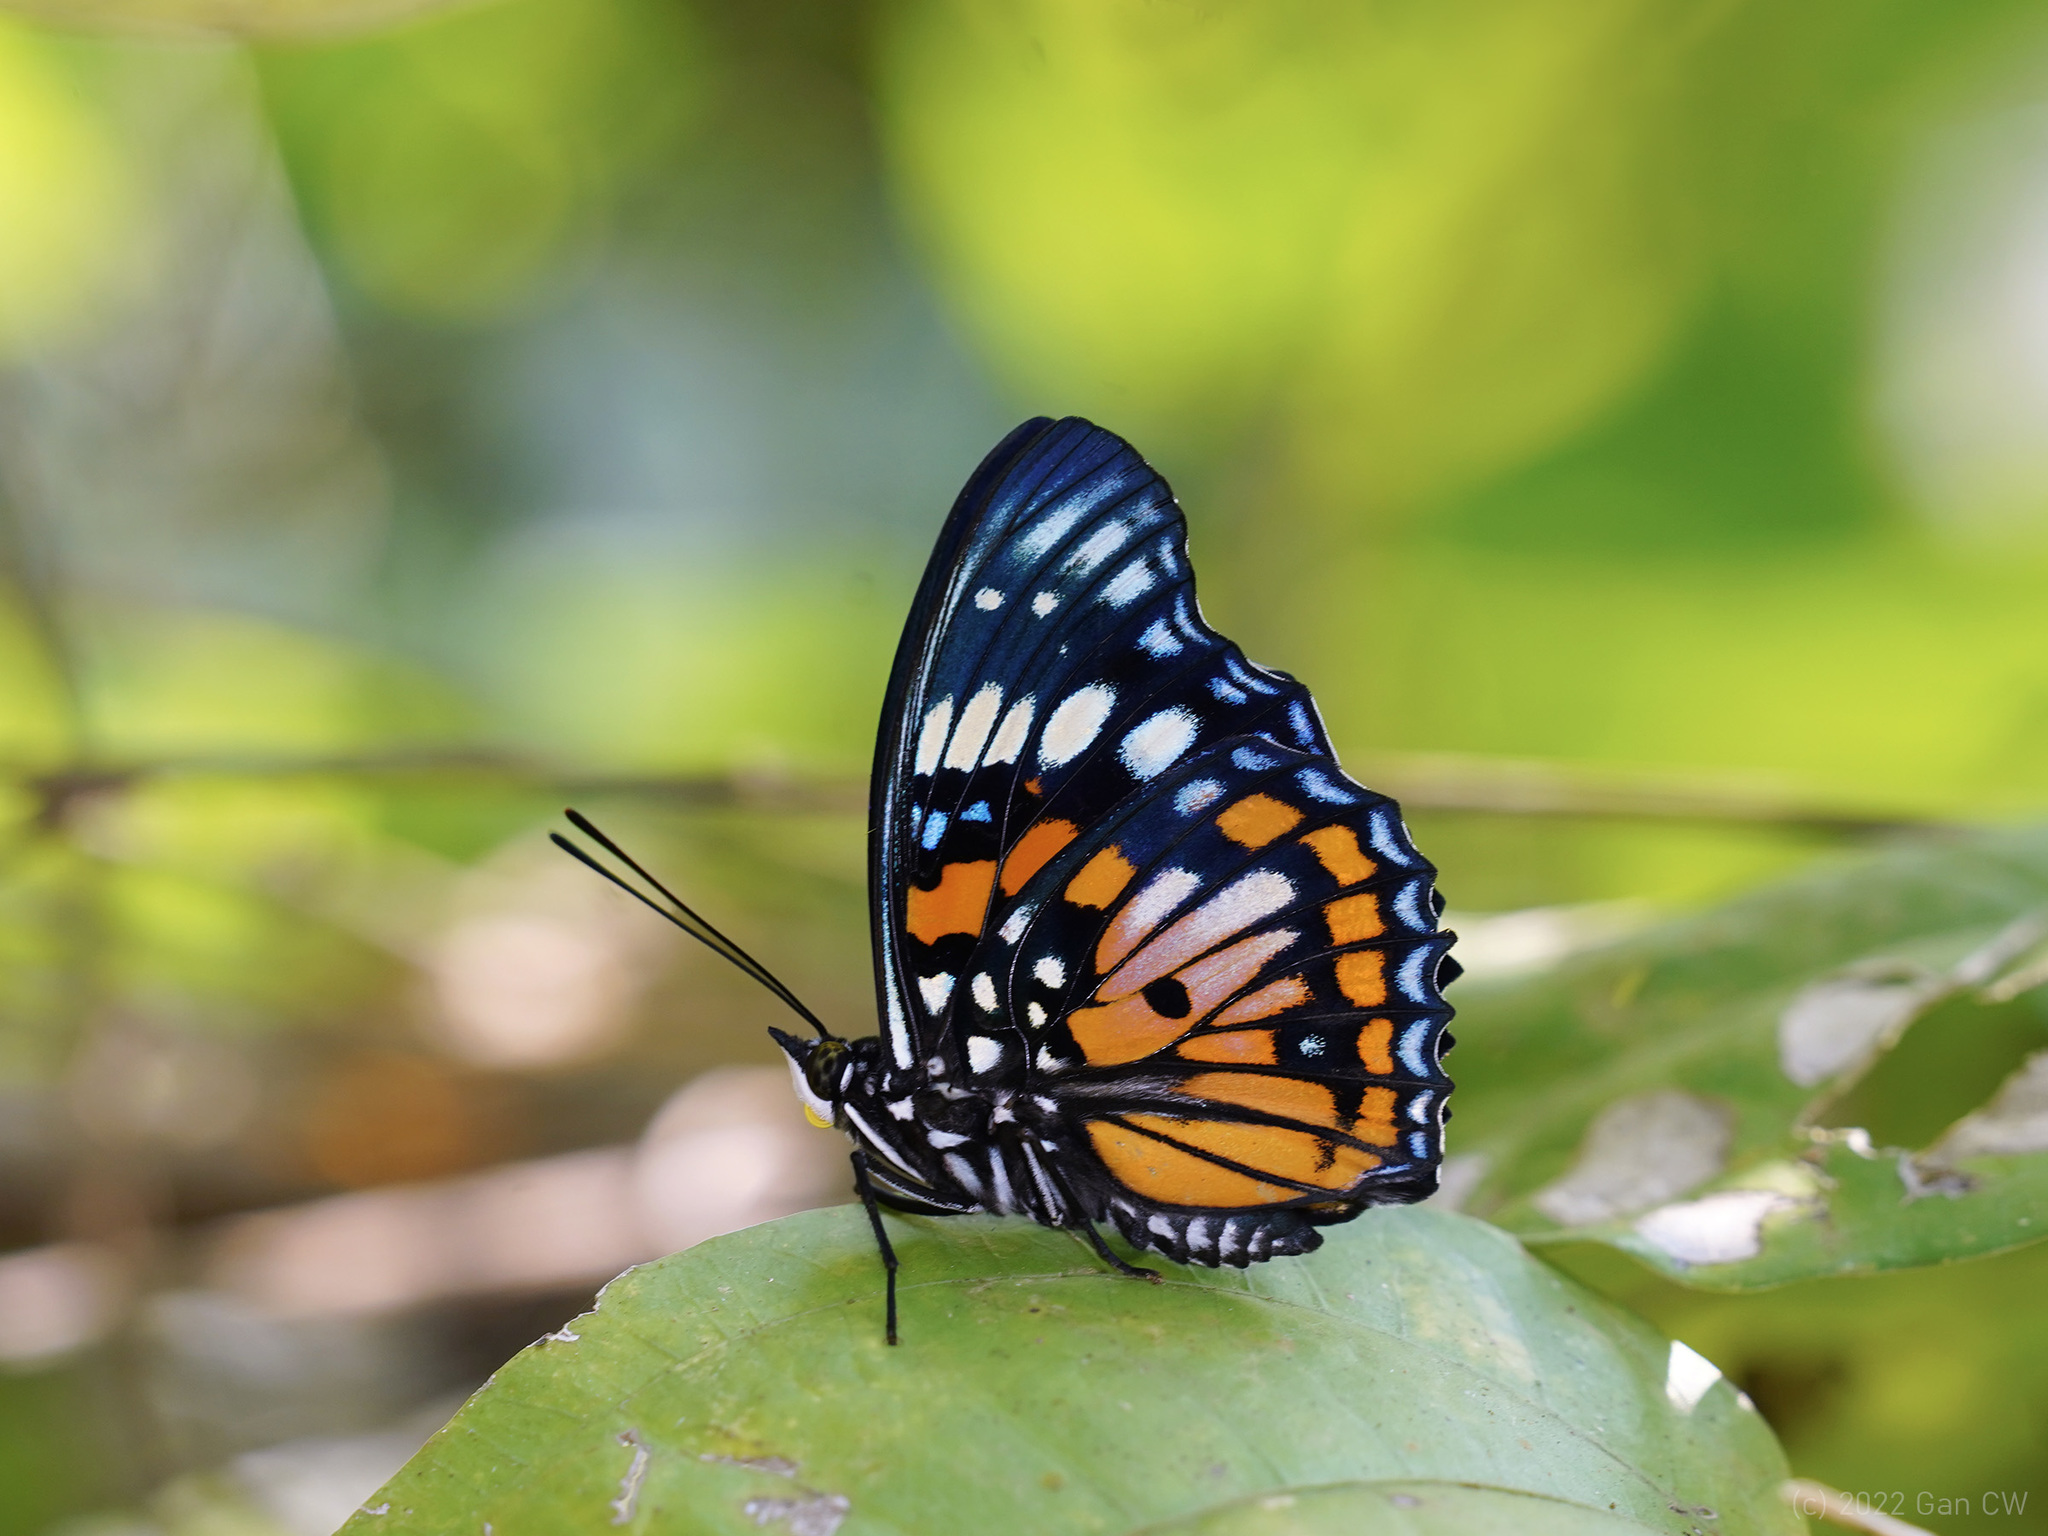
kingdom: Animalia
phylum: Arthropoda
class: Insecta
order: Lepidoptera
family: Nymphalidae
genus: Sephisa
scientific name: Sephisa chandra
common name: Eastern courtier
